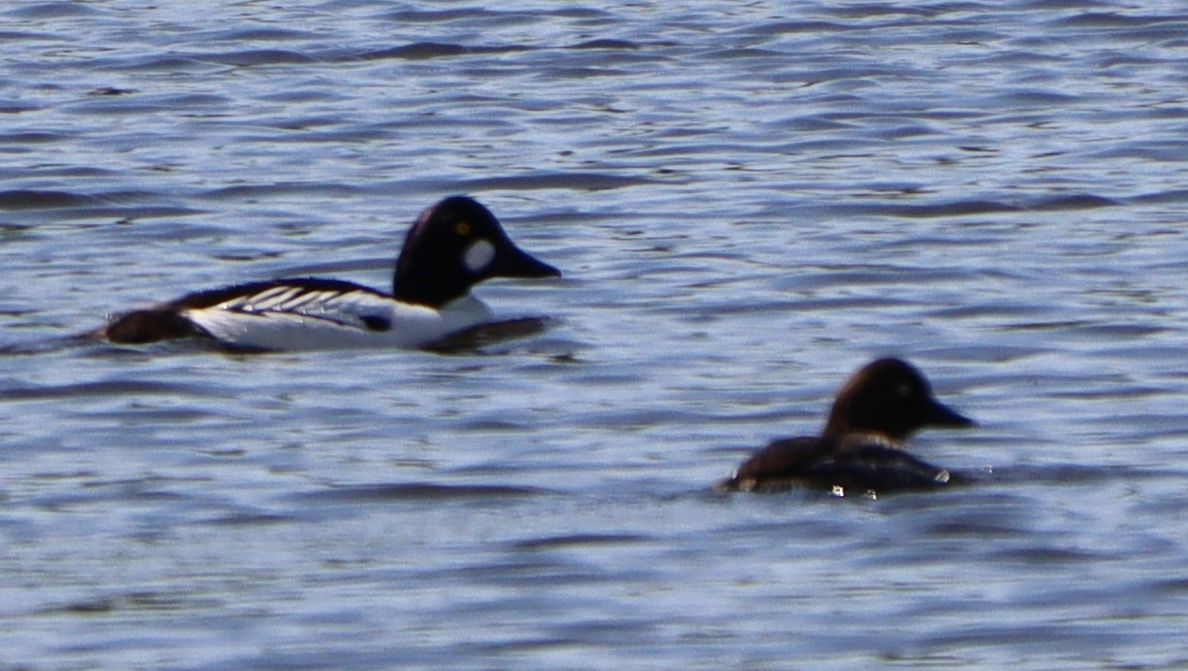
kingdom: Animalia
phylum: Chordata
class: Aves
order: Anseriformes
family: Anatidae
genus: Bucephala
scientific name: Bucephala clangula
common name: Common goldeneye
